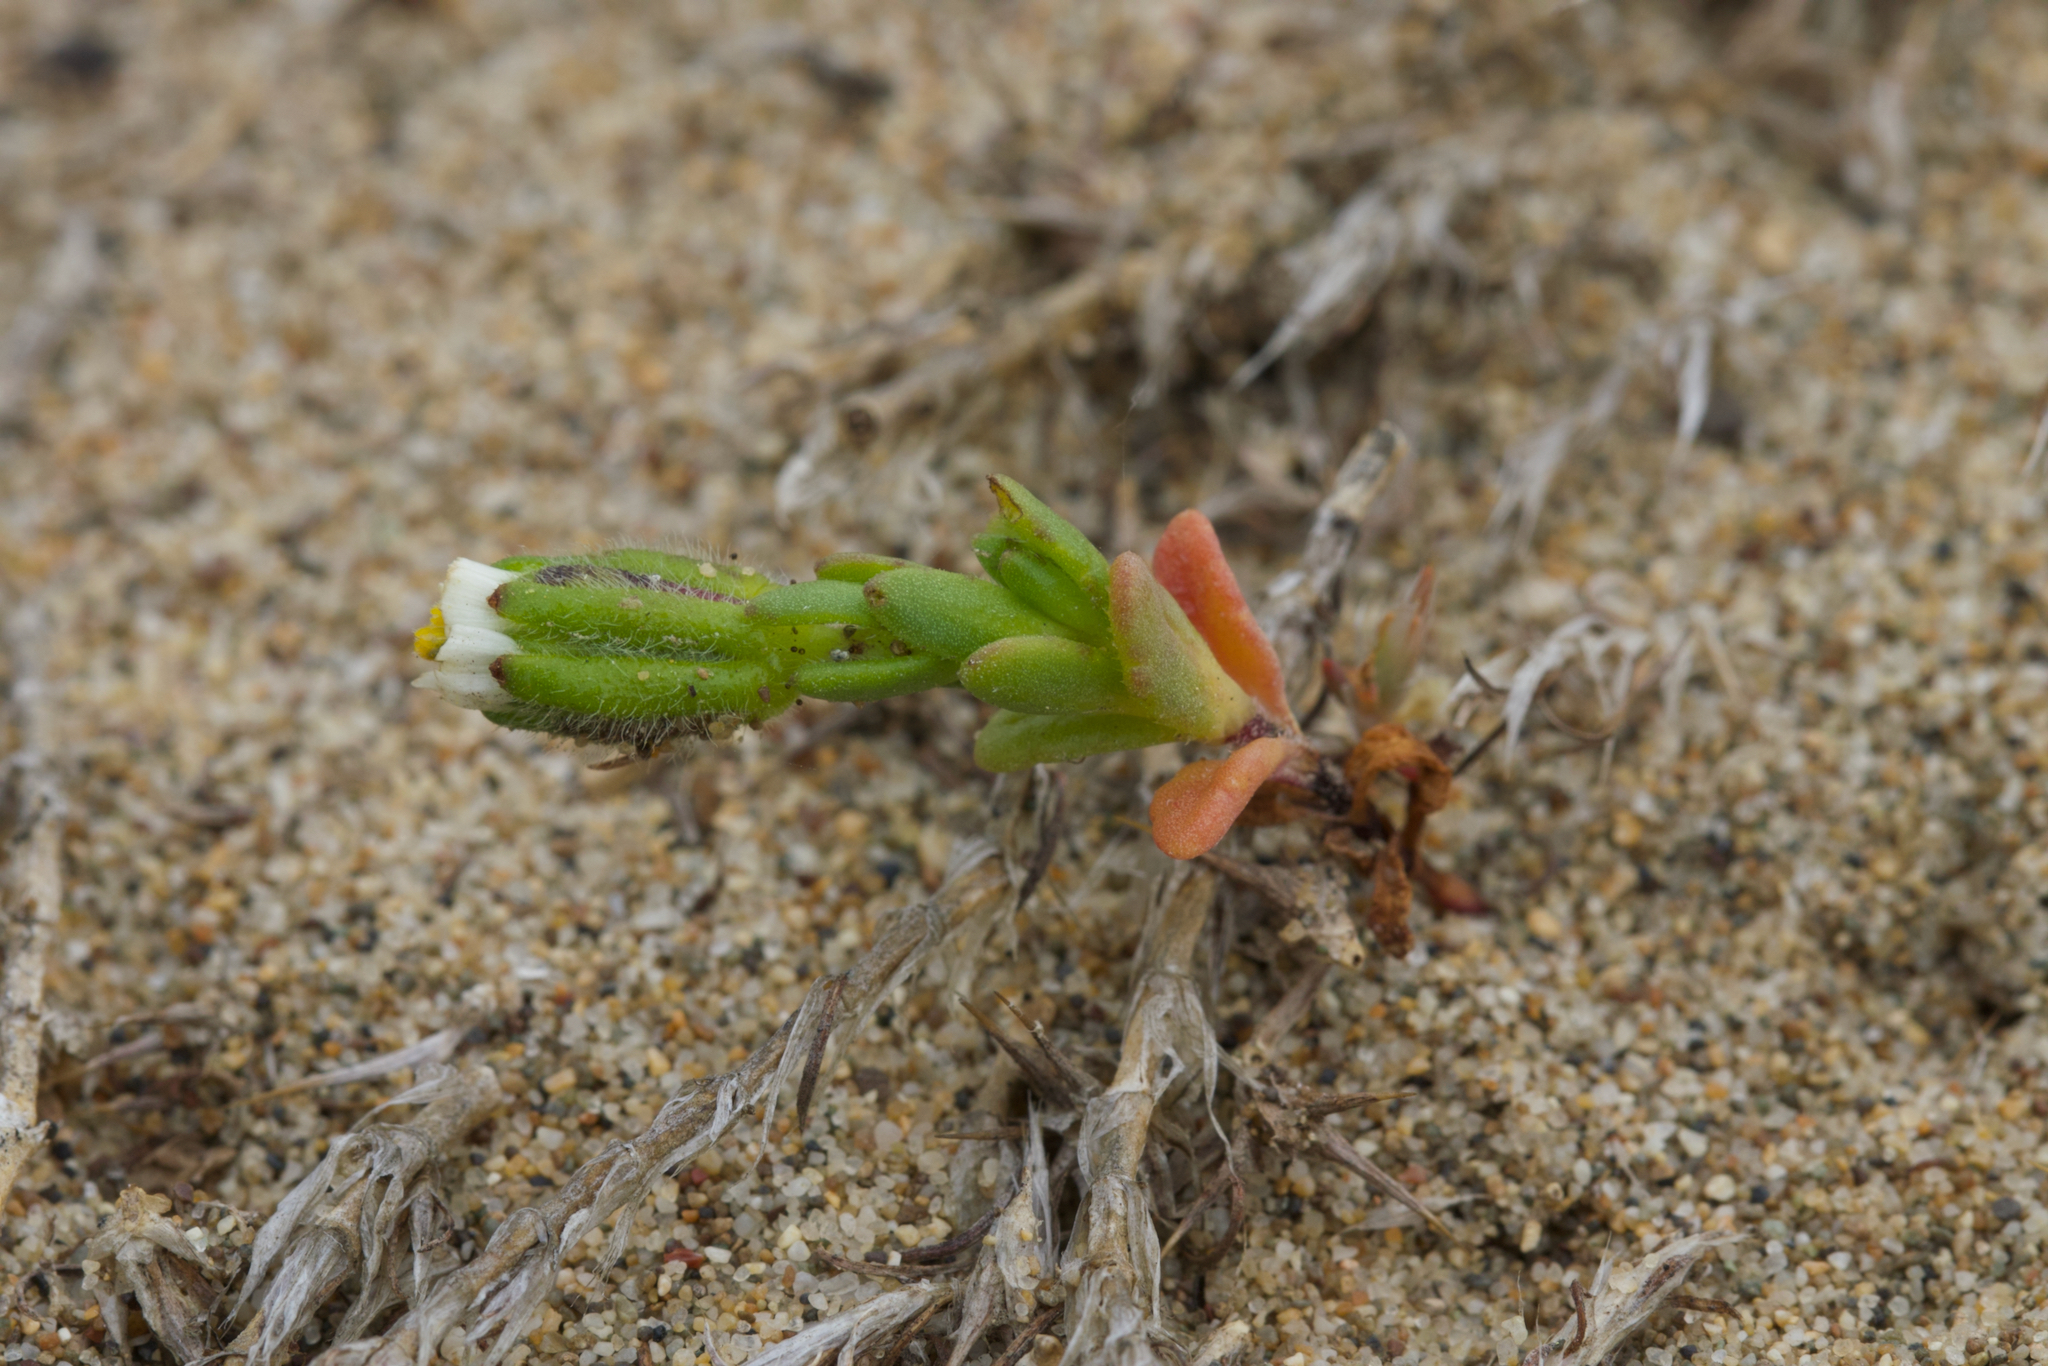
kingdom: Plantae
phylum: Tracheophyta
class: Magnoliopsida
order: Asterales
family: Asteraceae
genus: Layia
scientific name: Layia carnosa
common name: Beach layia
